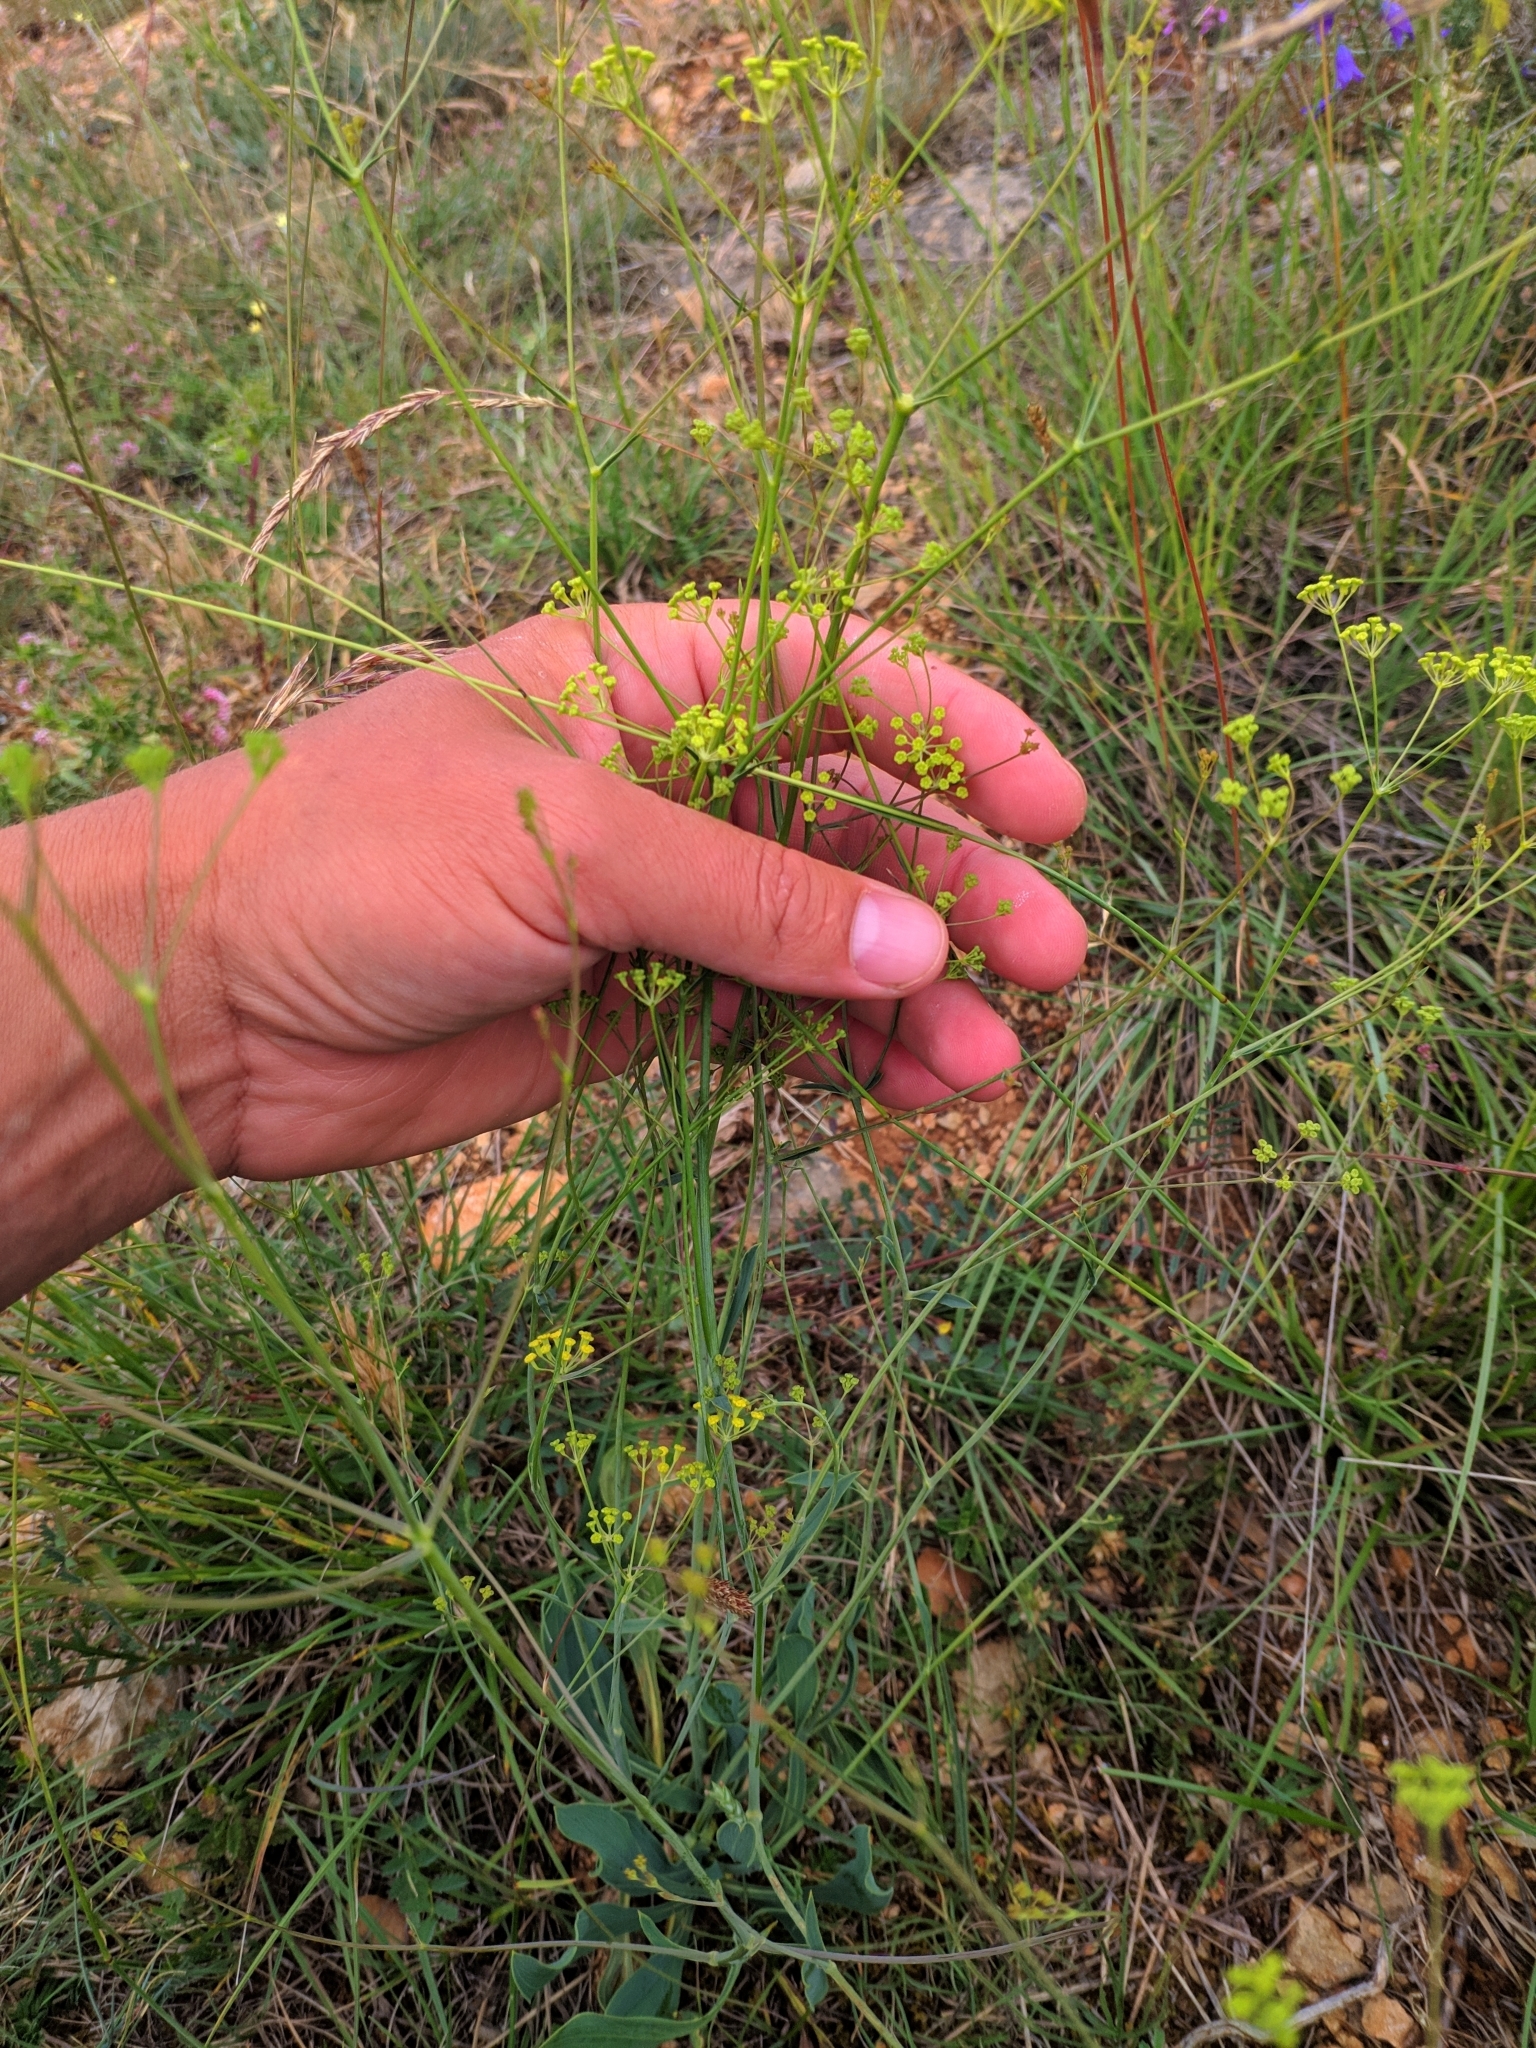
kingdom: Plantae
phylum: Tracheophyta
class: Magnoliopsida
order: Apiales
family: Apiaceae
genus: Bupleurum
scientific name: Bupleurum rigidum
